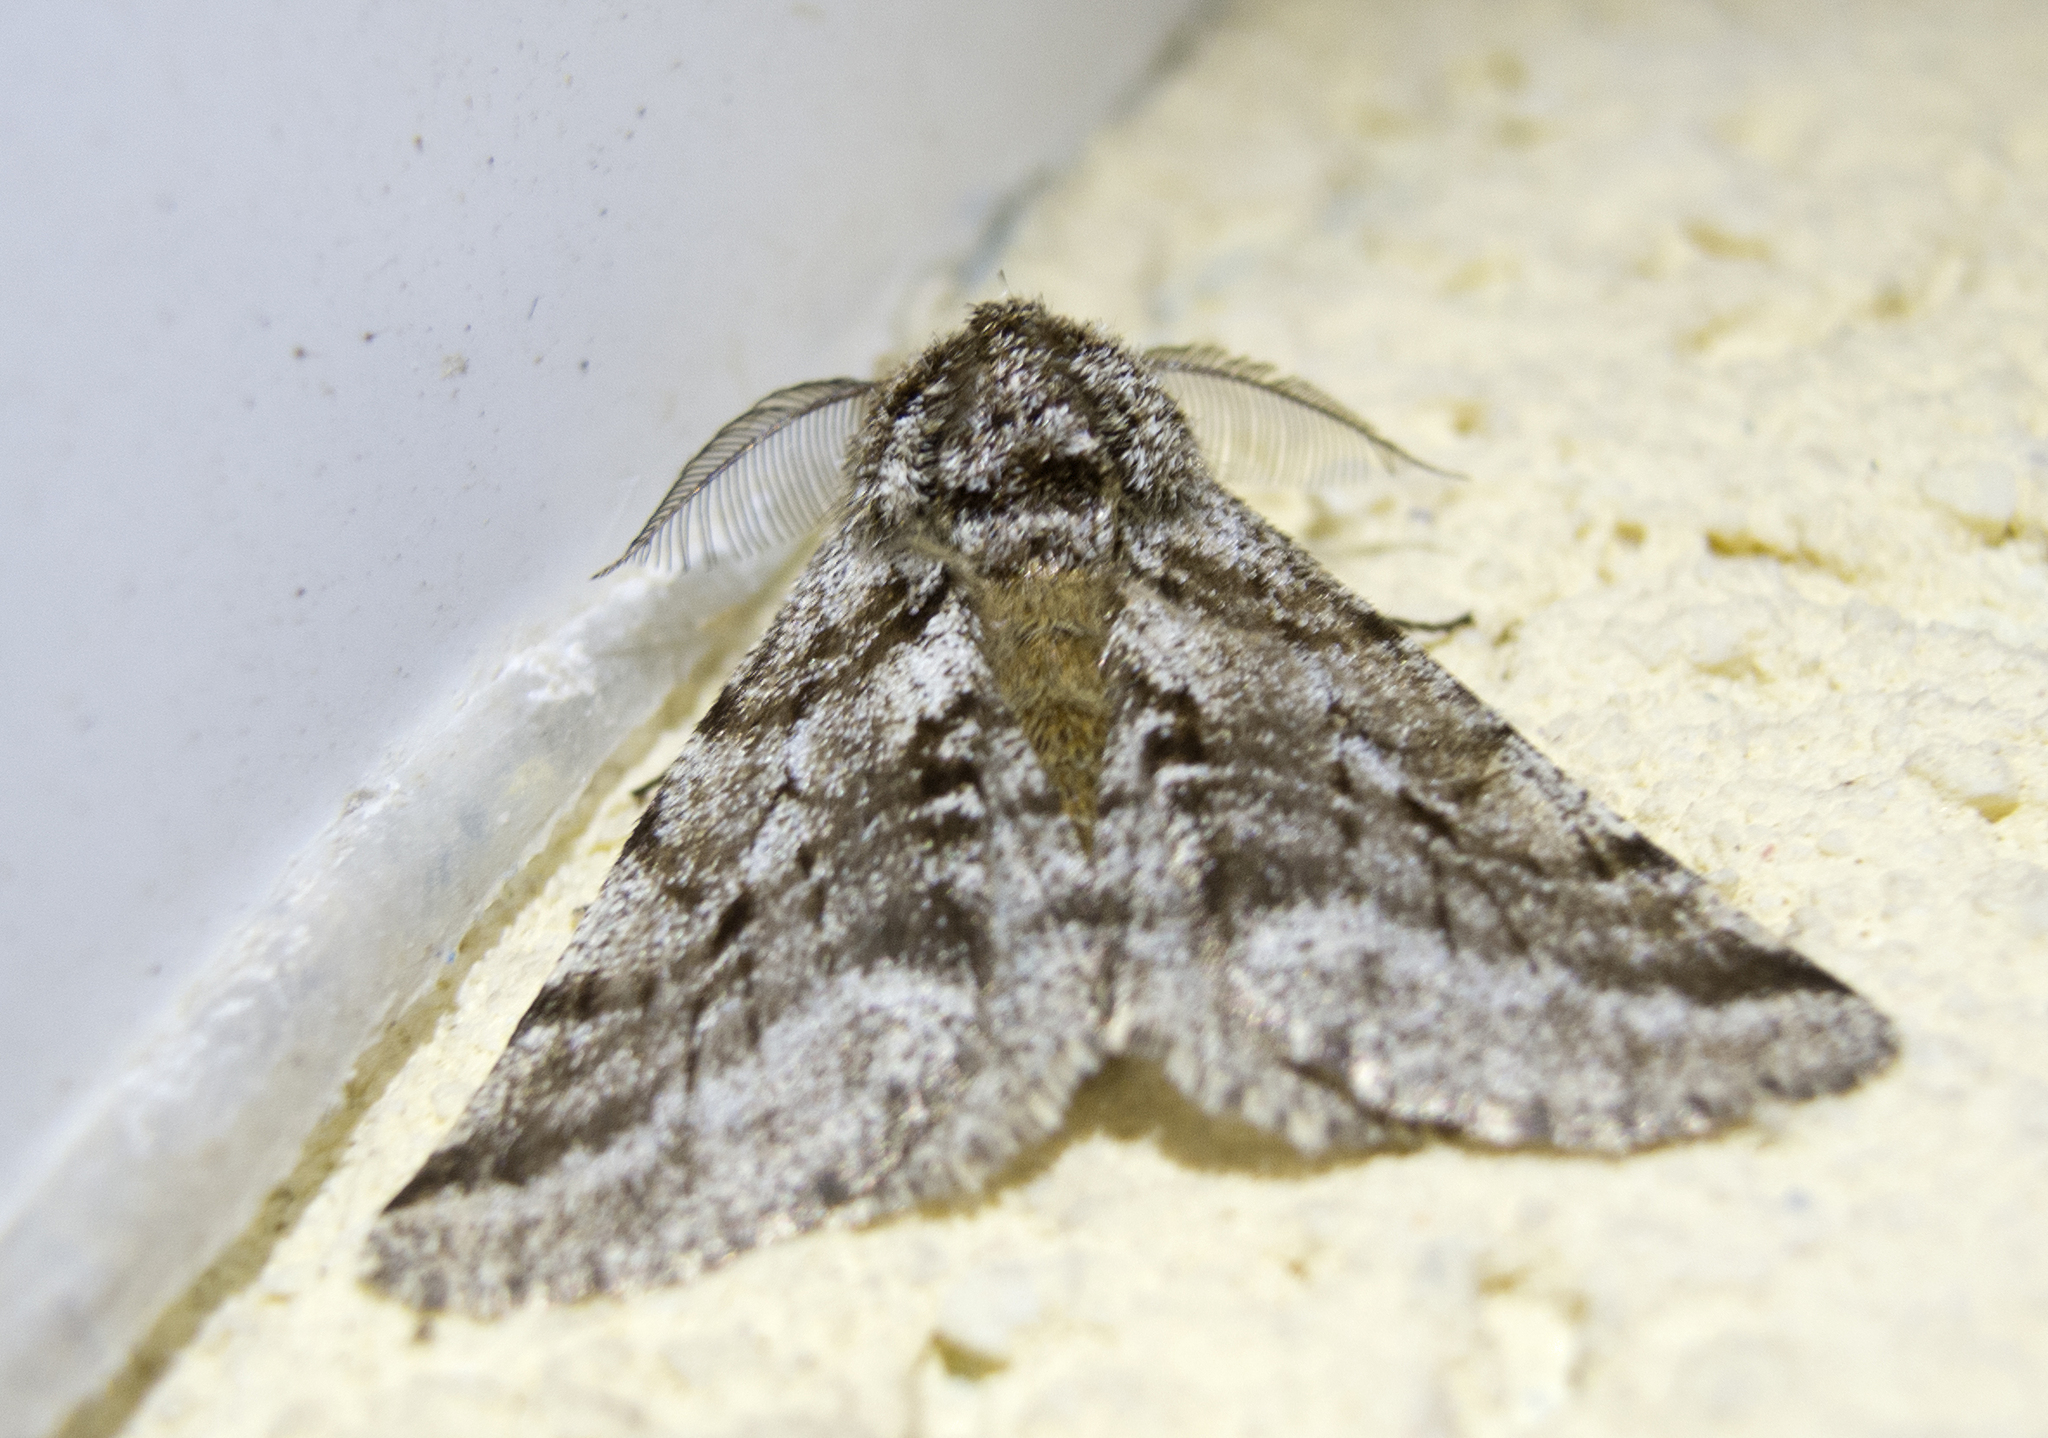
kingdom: Animalia
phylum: Arthropoda
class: Insecta
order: Lepidoptera
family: Geometridae
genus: Lycia
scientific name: Lycia hirtaria
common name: Brindled beauty
